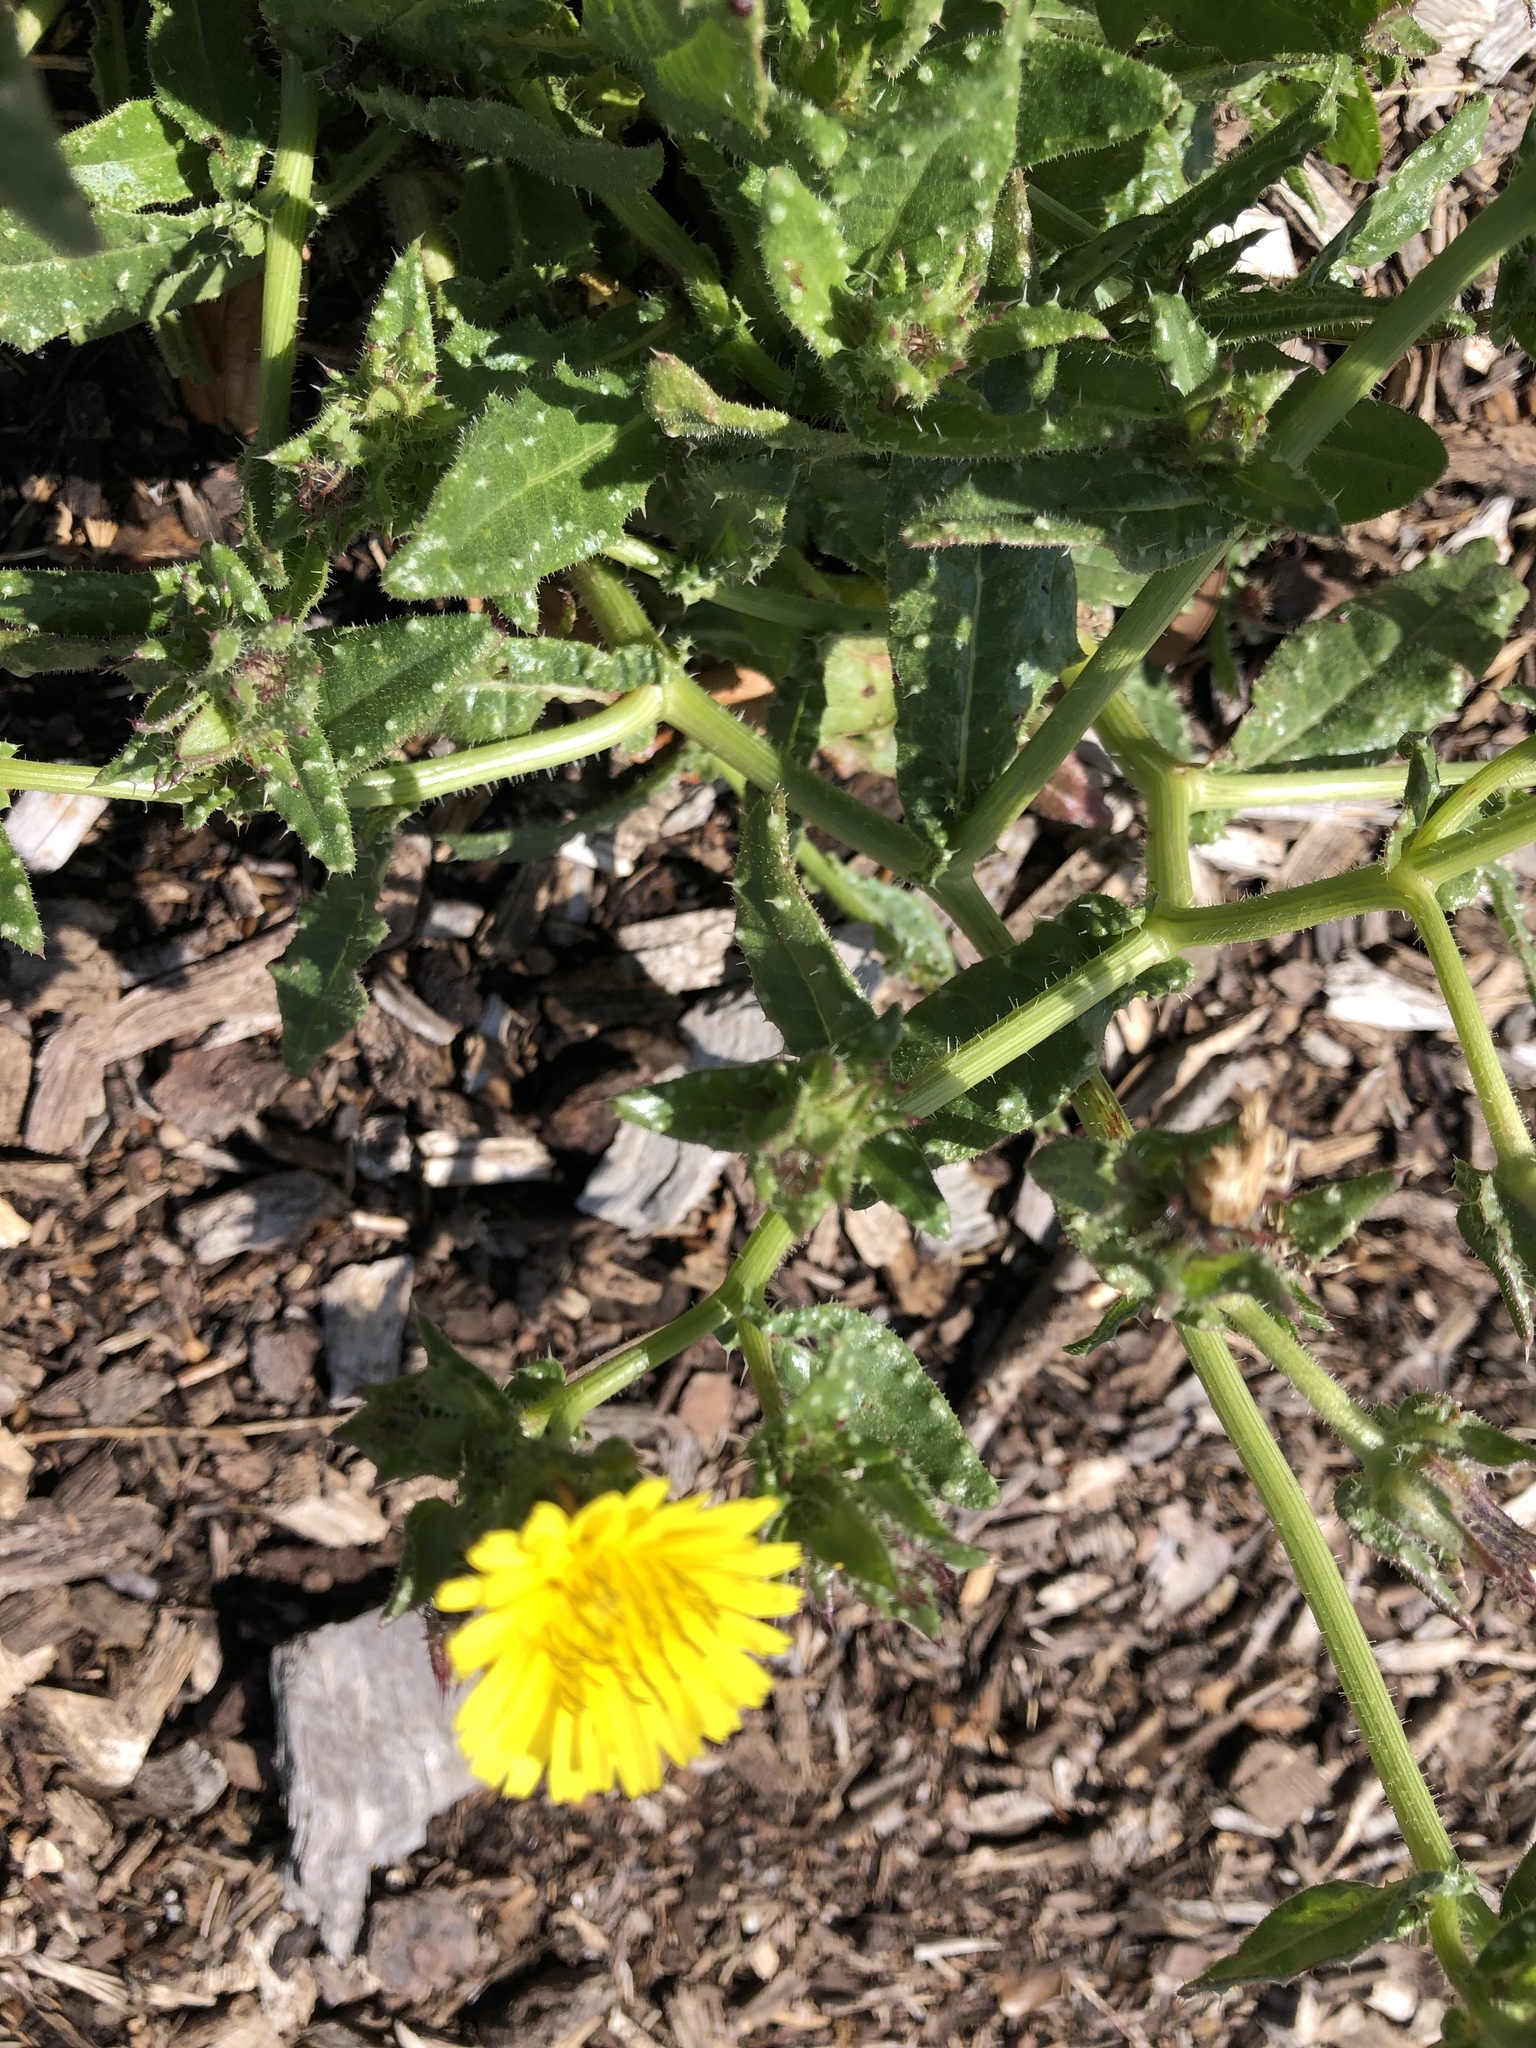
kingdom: Plantae
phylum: Tracheophyta
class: Magnoliopsida
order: Asterales
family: Asteraceae
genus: Helminthotheca
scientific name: Helminthotheca echioides
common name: Ox-tongue
